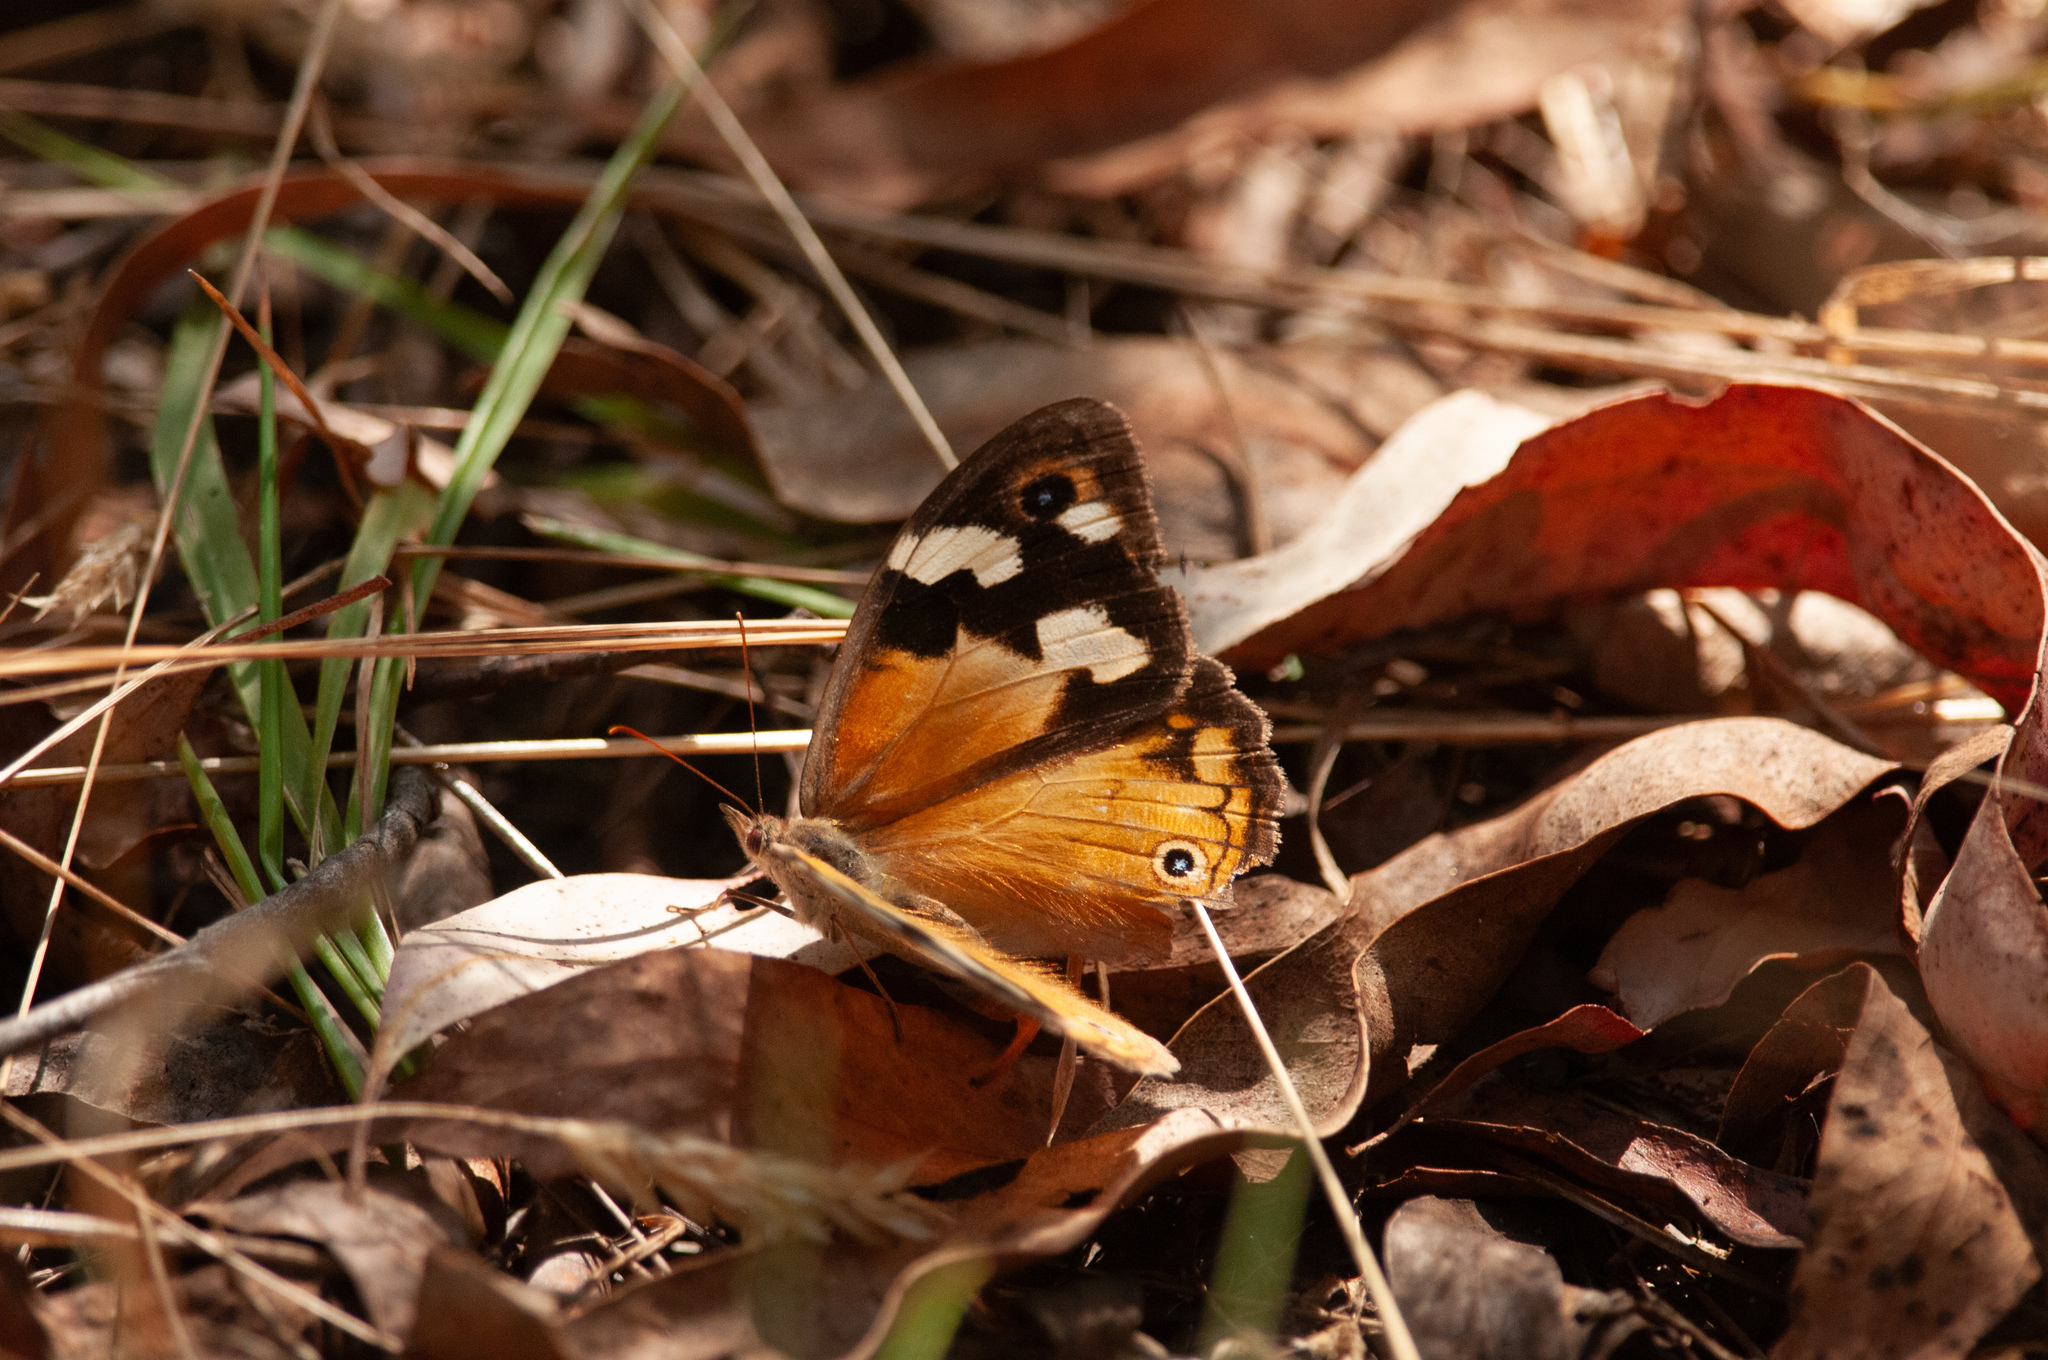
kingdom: Animalia
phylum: Arthropoda
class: Insecta
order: Lepidoptera
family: Nymphalidae
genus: Heteronympha
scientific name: Heteronympha merope
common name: Common brown
